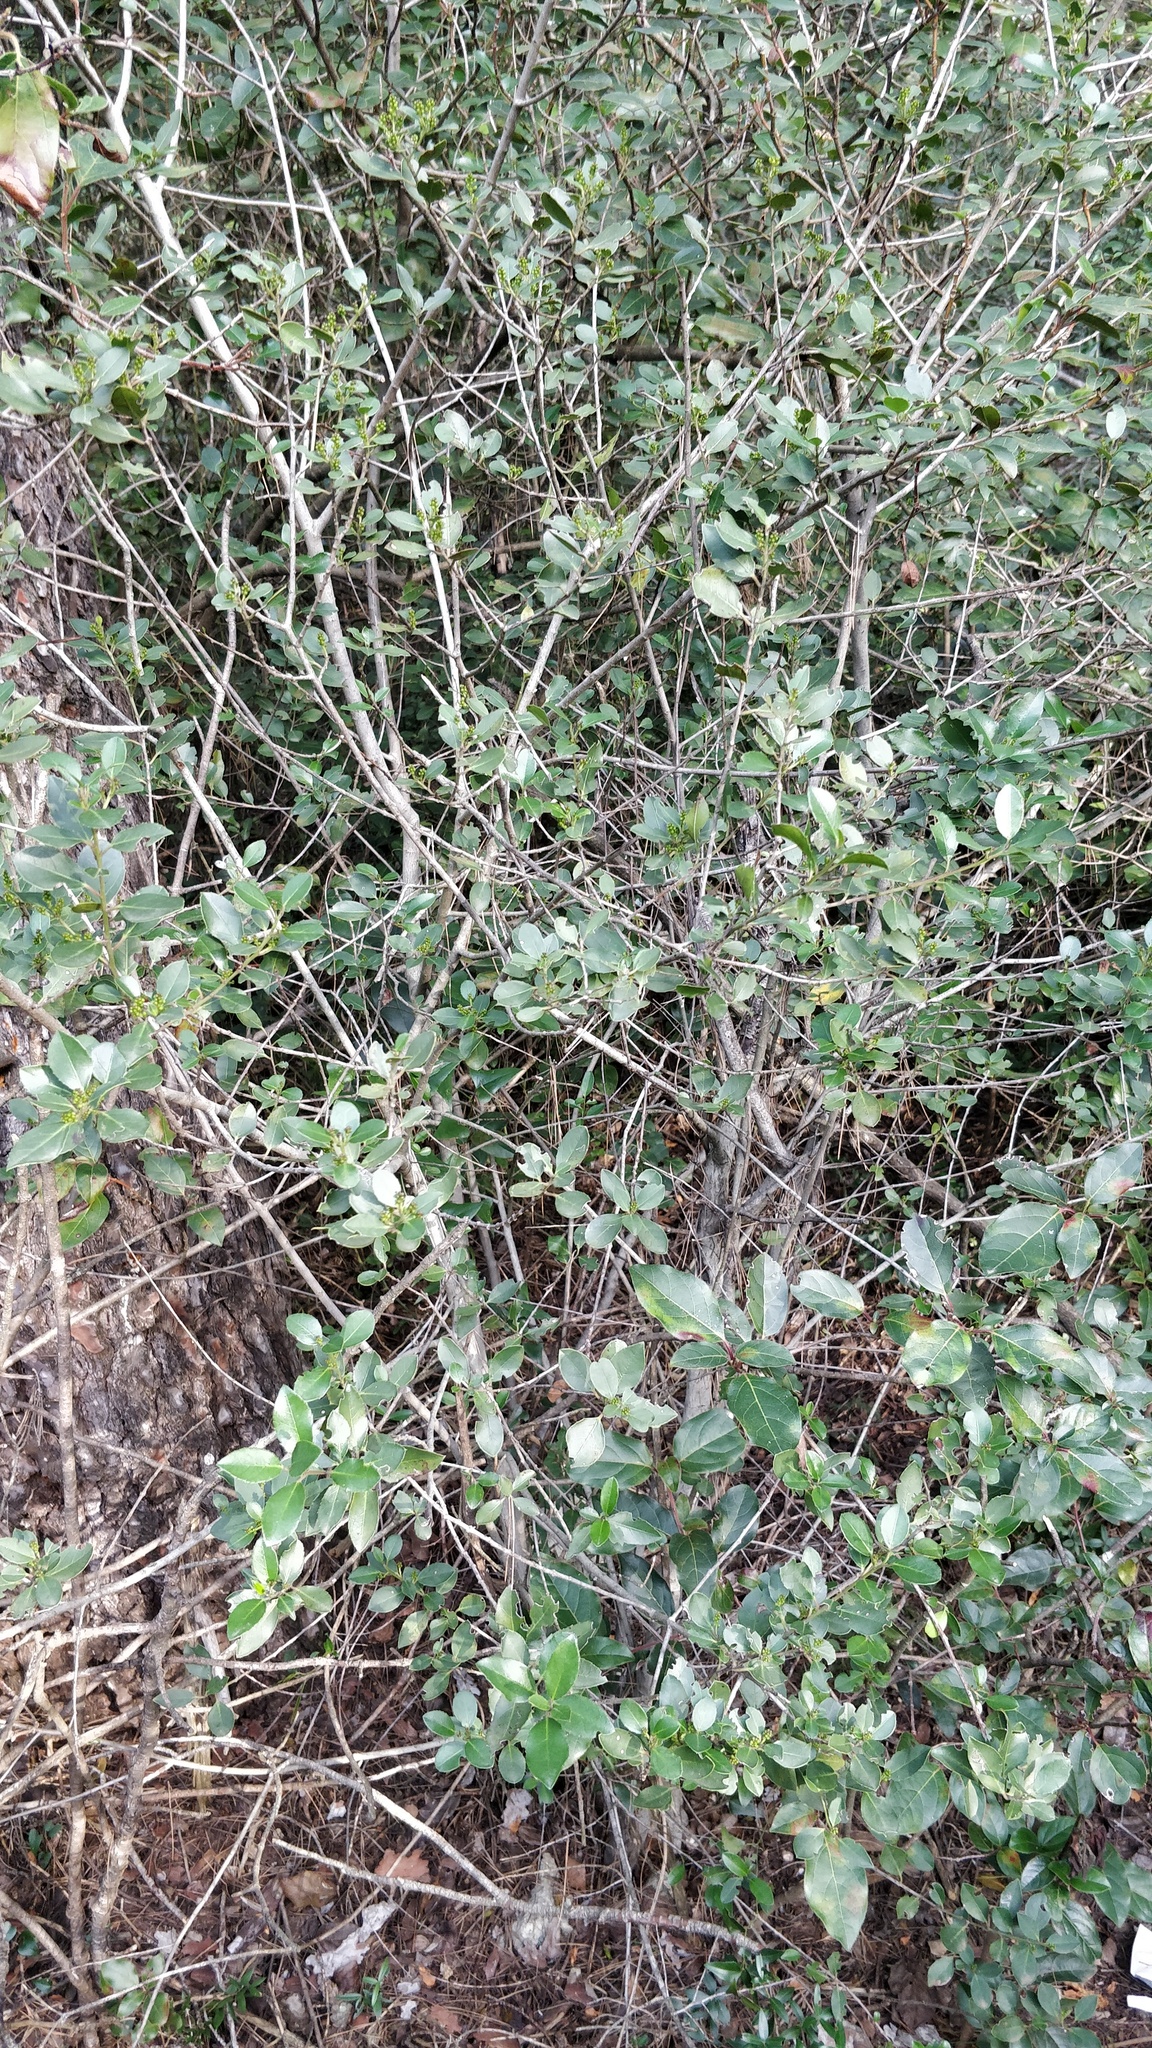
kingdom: Plantae
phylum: Tracheophyta
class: Magnoliopsida
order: Rosales
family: Rhamnaceae
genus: Rhamnus
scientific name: Rhamnus alaternus
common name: Mediterranean buckthorn
